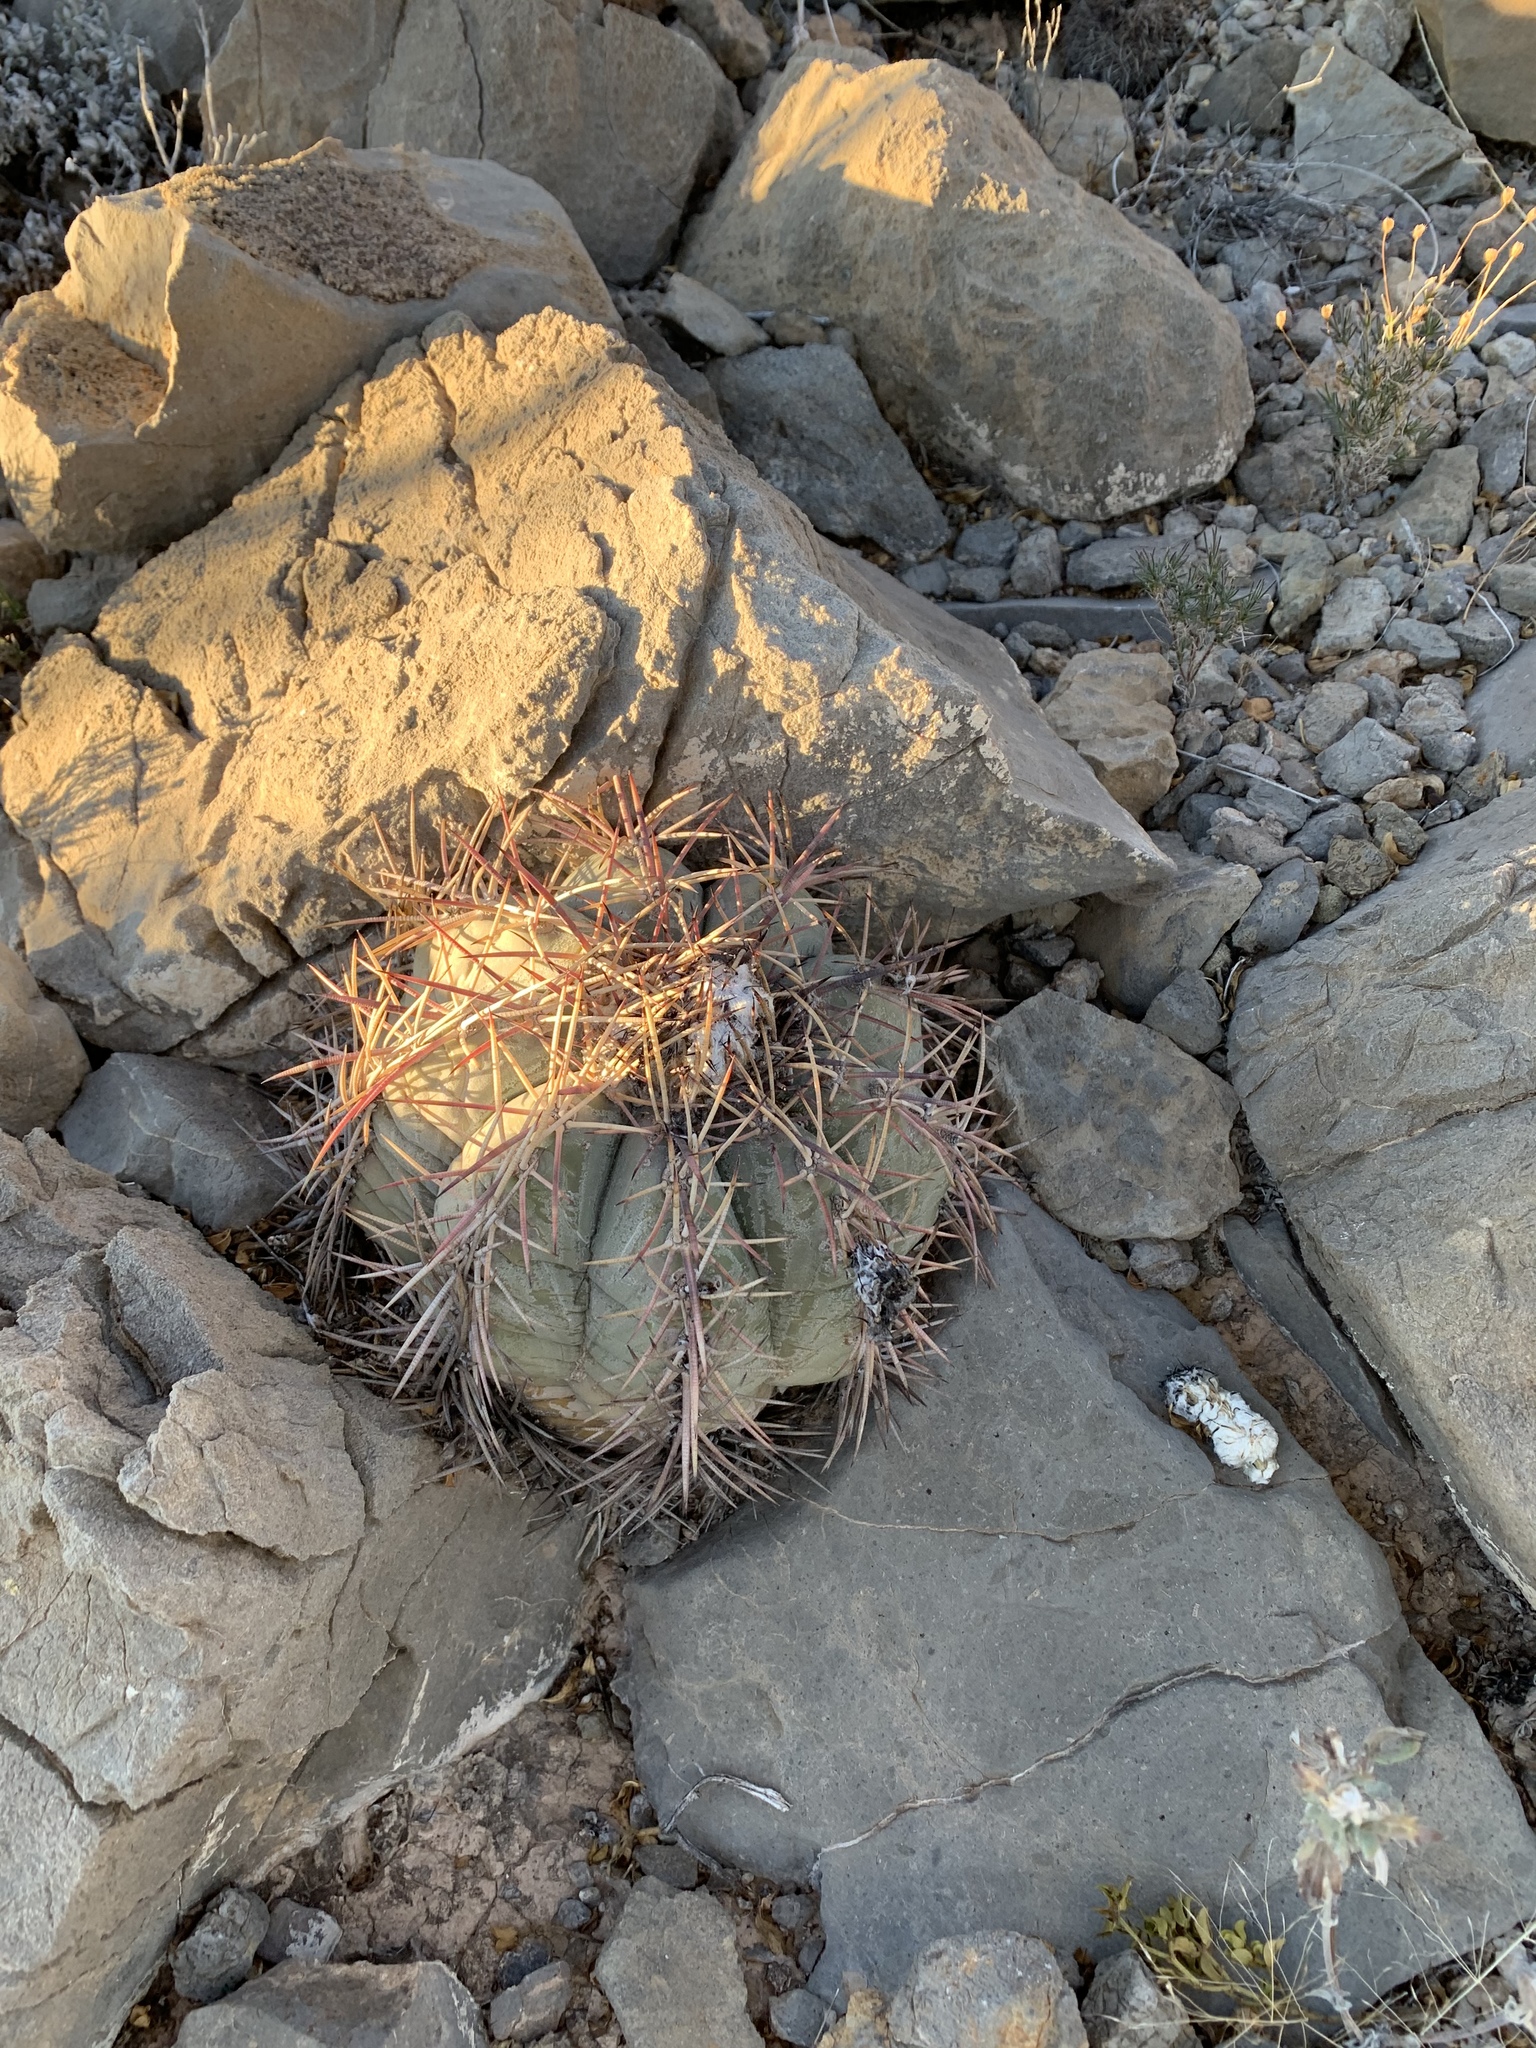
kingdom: Plantae
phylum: Tracheophyta
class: Magnoliopsida
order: Caryophyllales
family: Cactaceae
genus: Echinocactus
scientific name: Echinocactus horizonthalonius
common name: Devilshead
